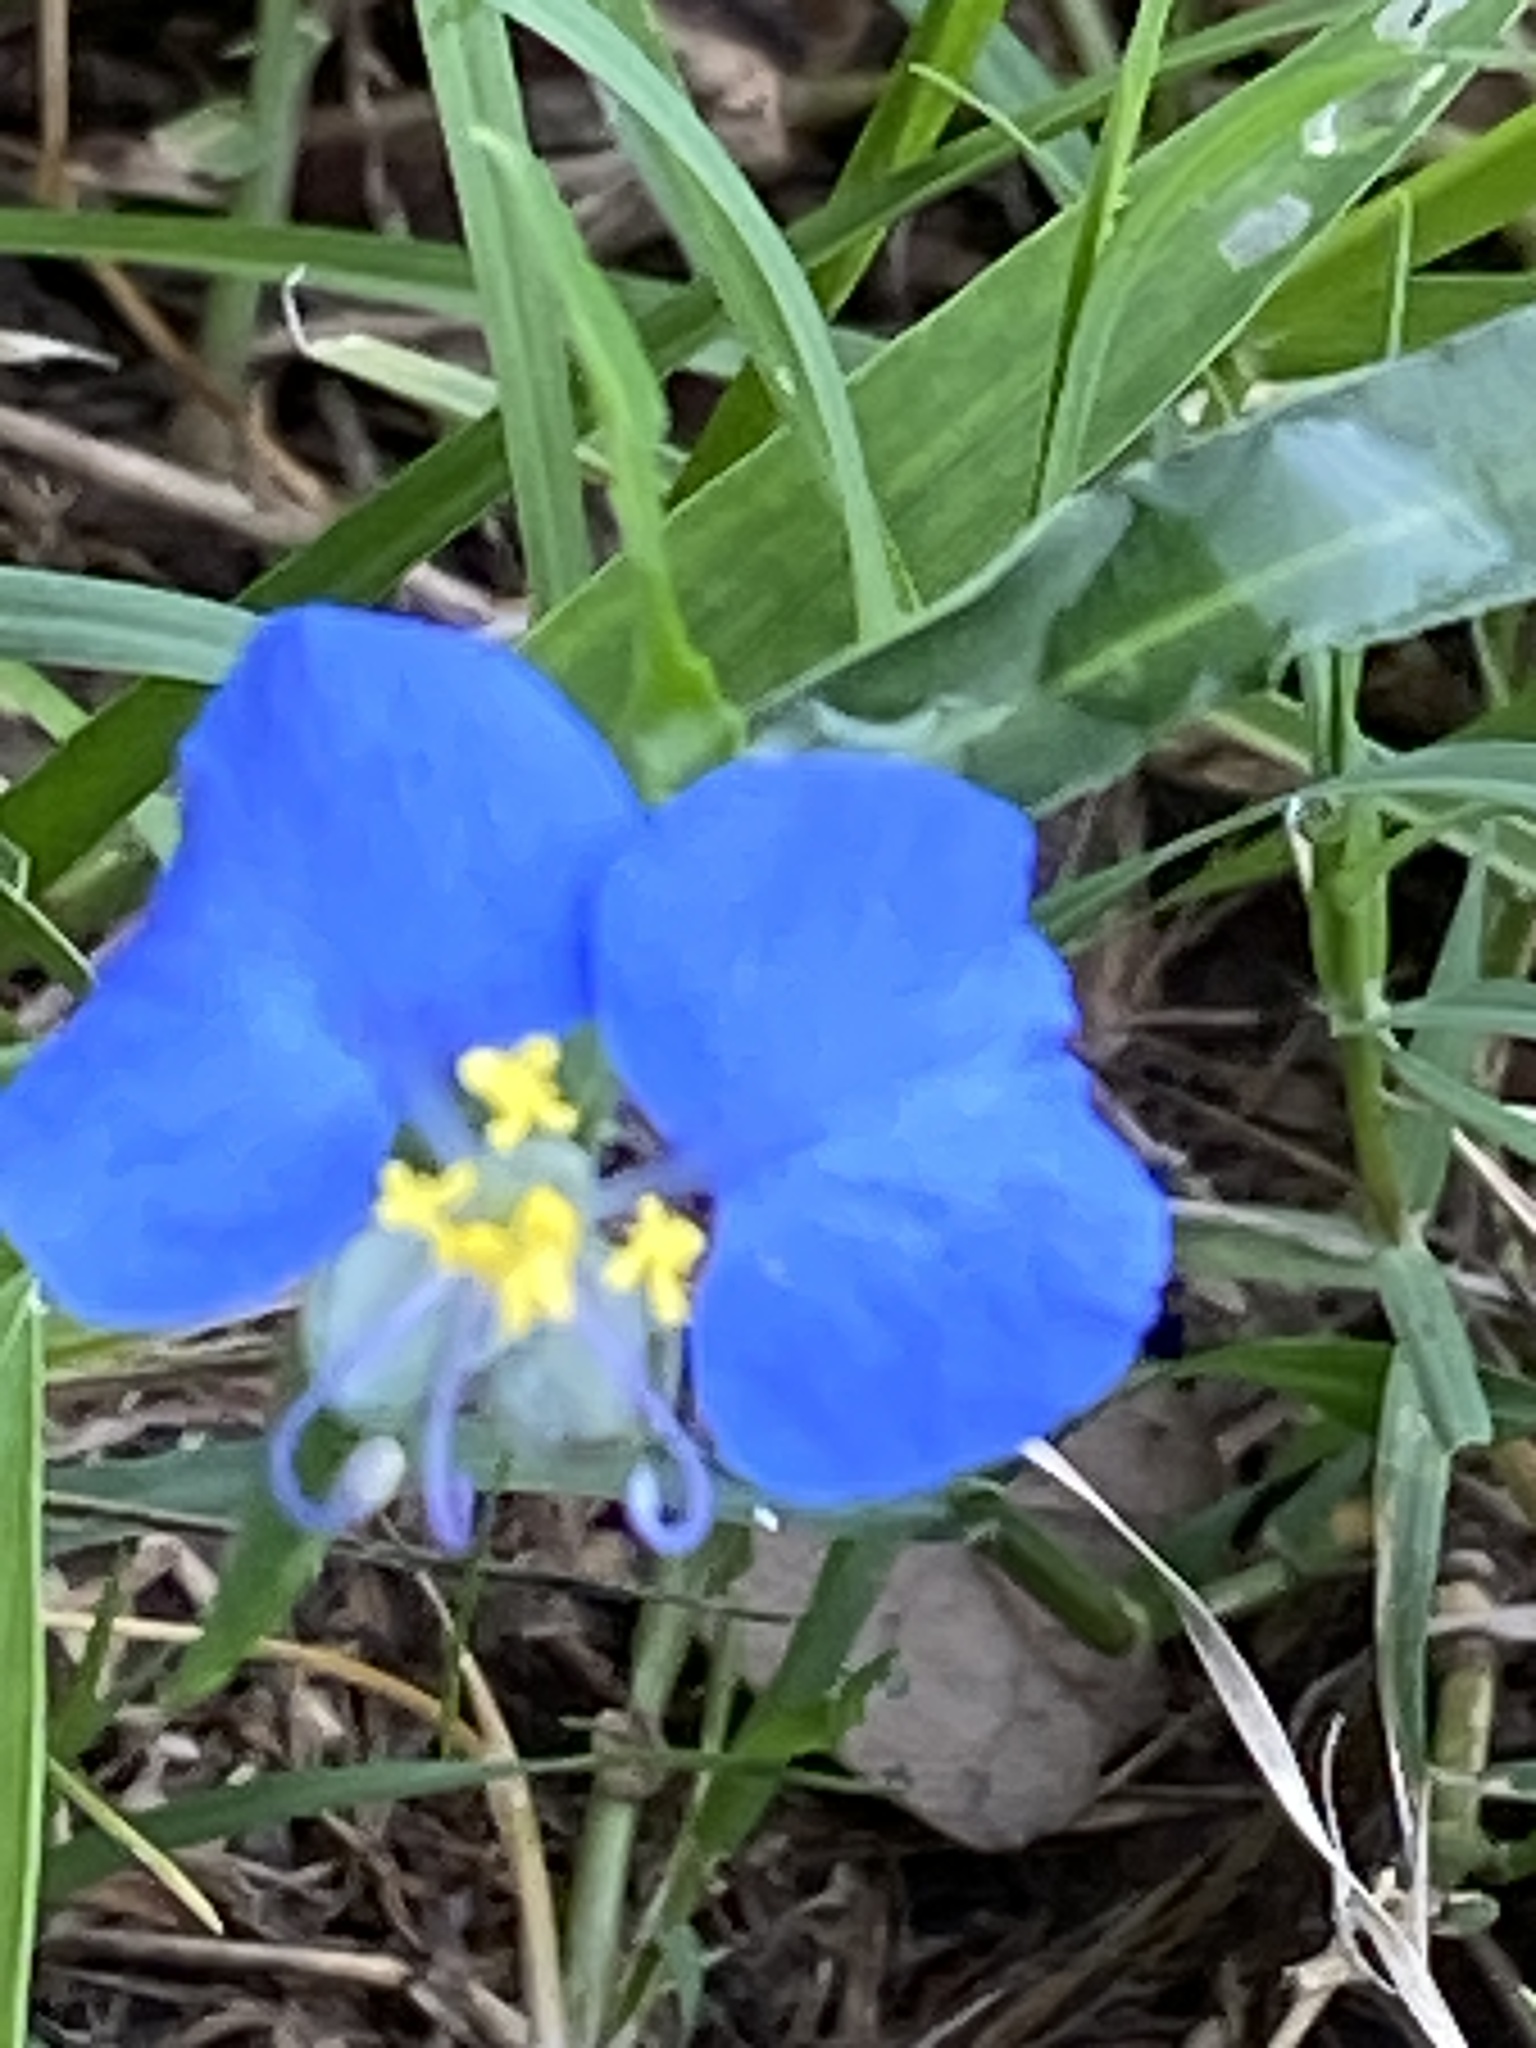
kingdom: Plantae
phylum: Tracheophyta
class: Liliopsida
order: Commelinales
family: Commelinaceae
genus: Commelina
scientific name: Commelina erecta
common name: Blousel blommetjie
